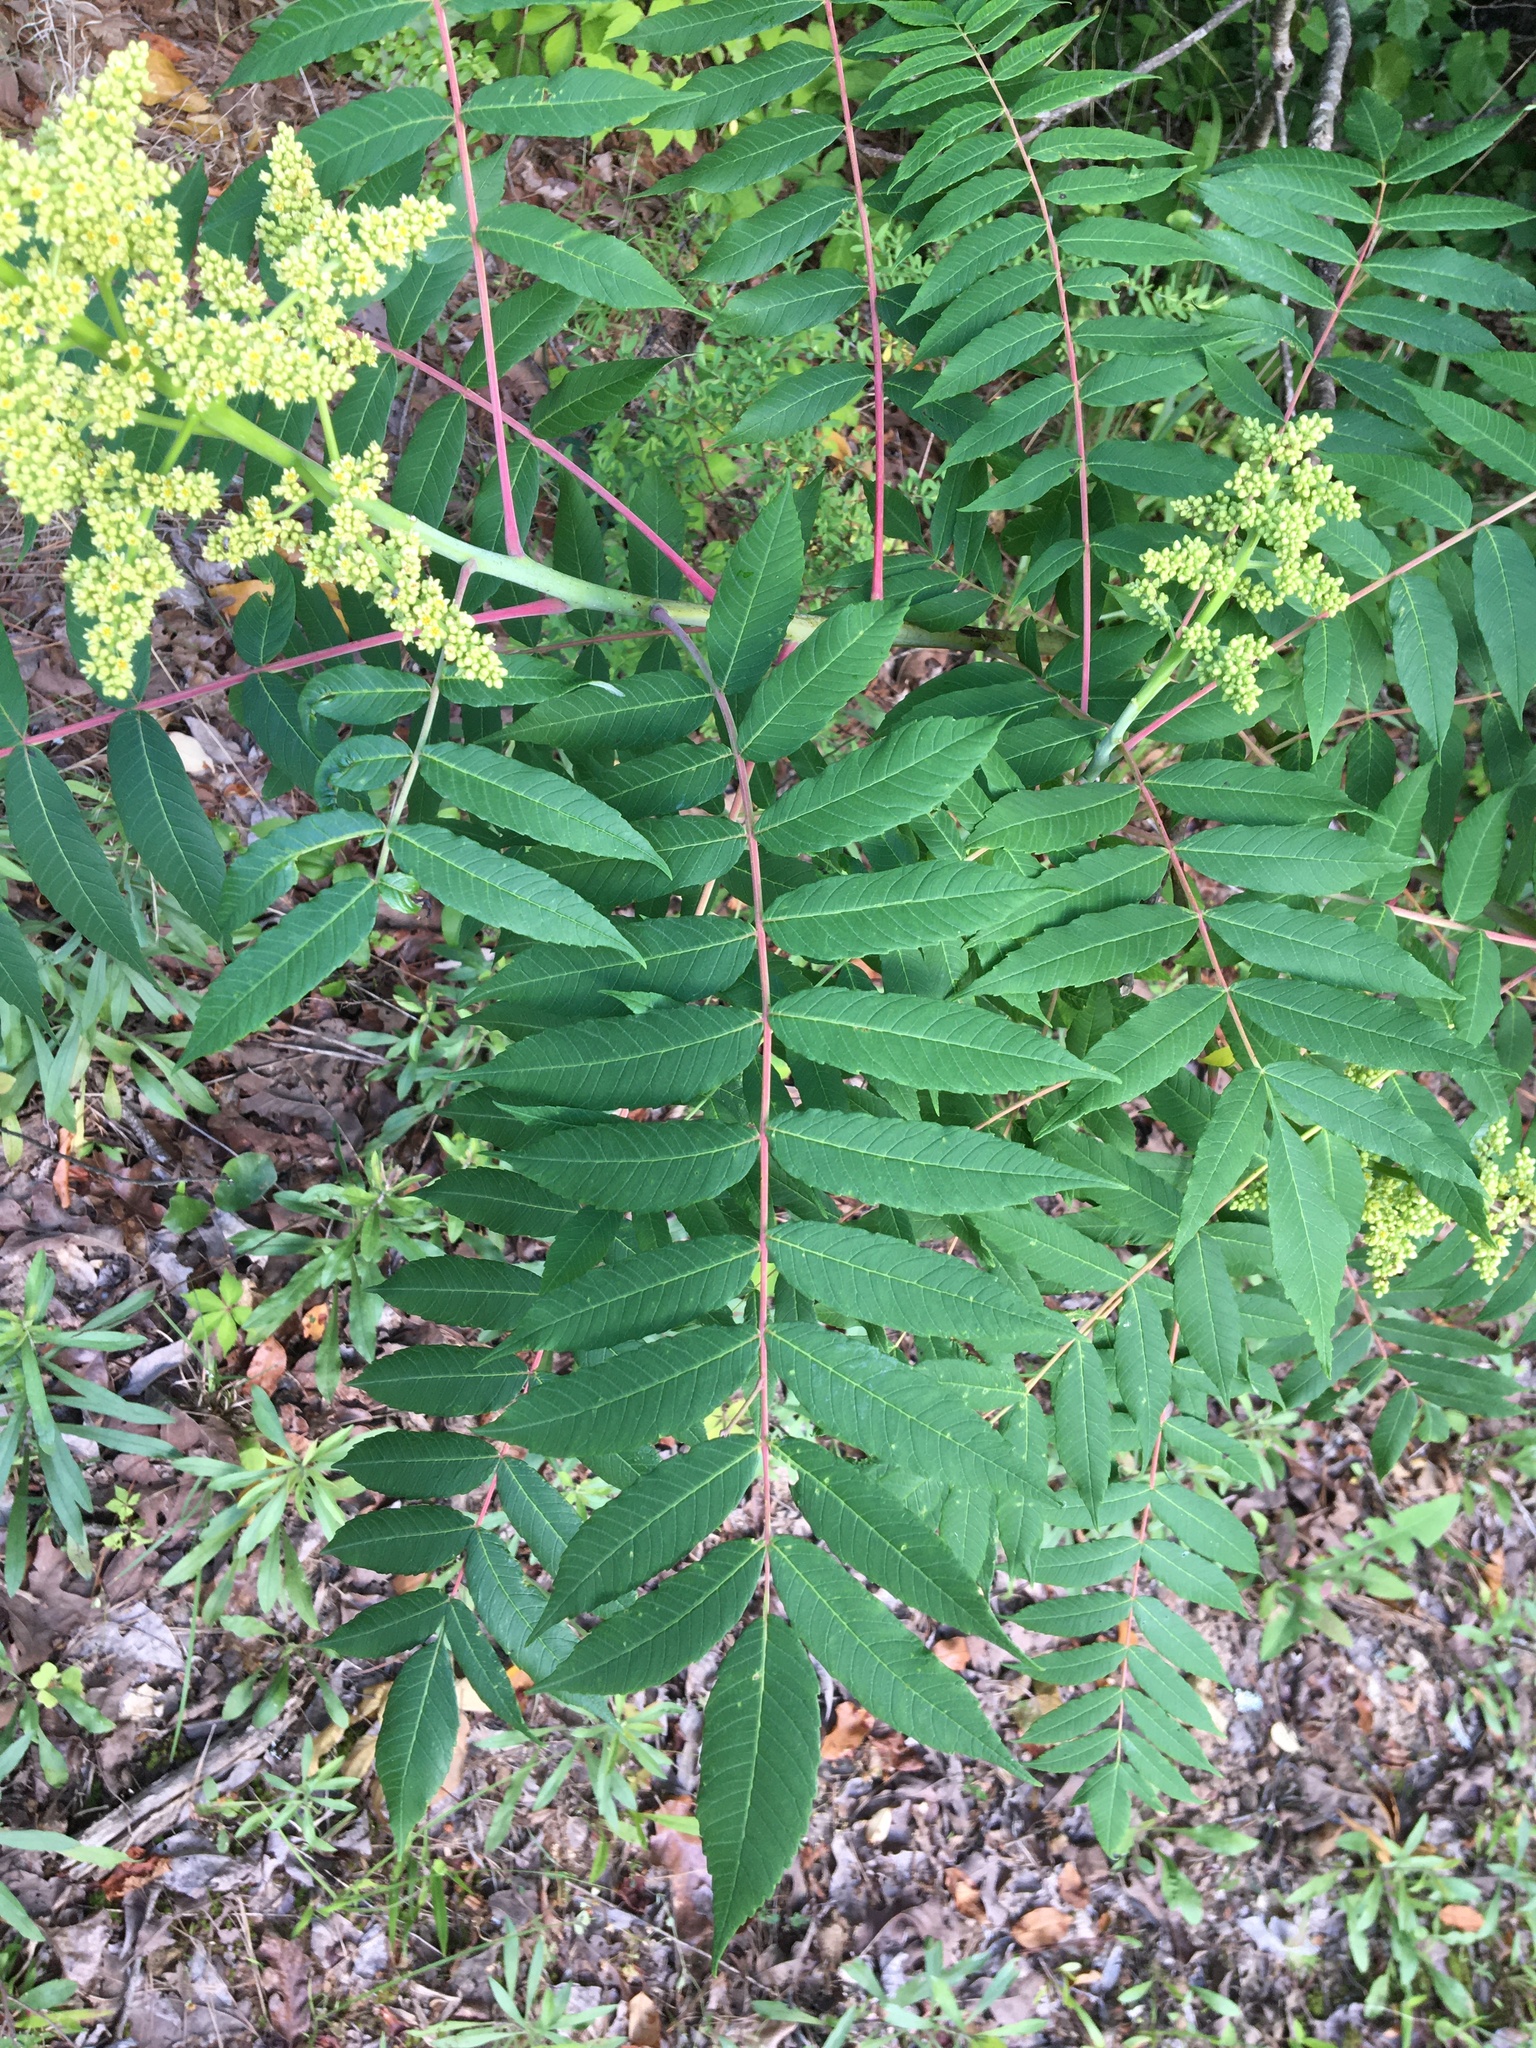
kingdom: Plantae
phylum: Tracheophyta
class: Magnoliopsida
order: Sapindales
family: Anacardiaceae
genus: Rhus
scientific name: Rhus glabra
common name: Scarlet sumac
